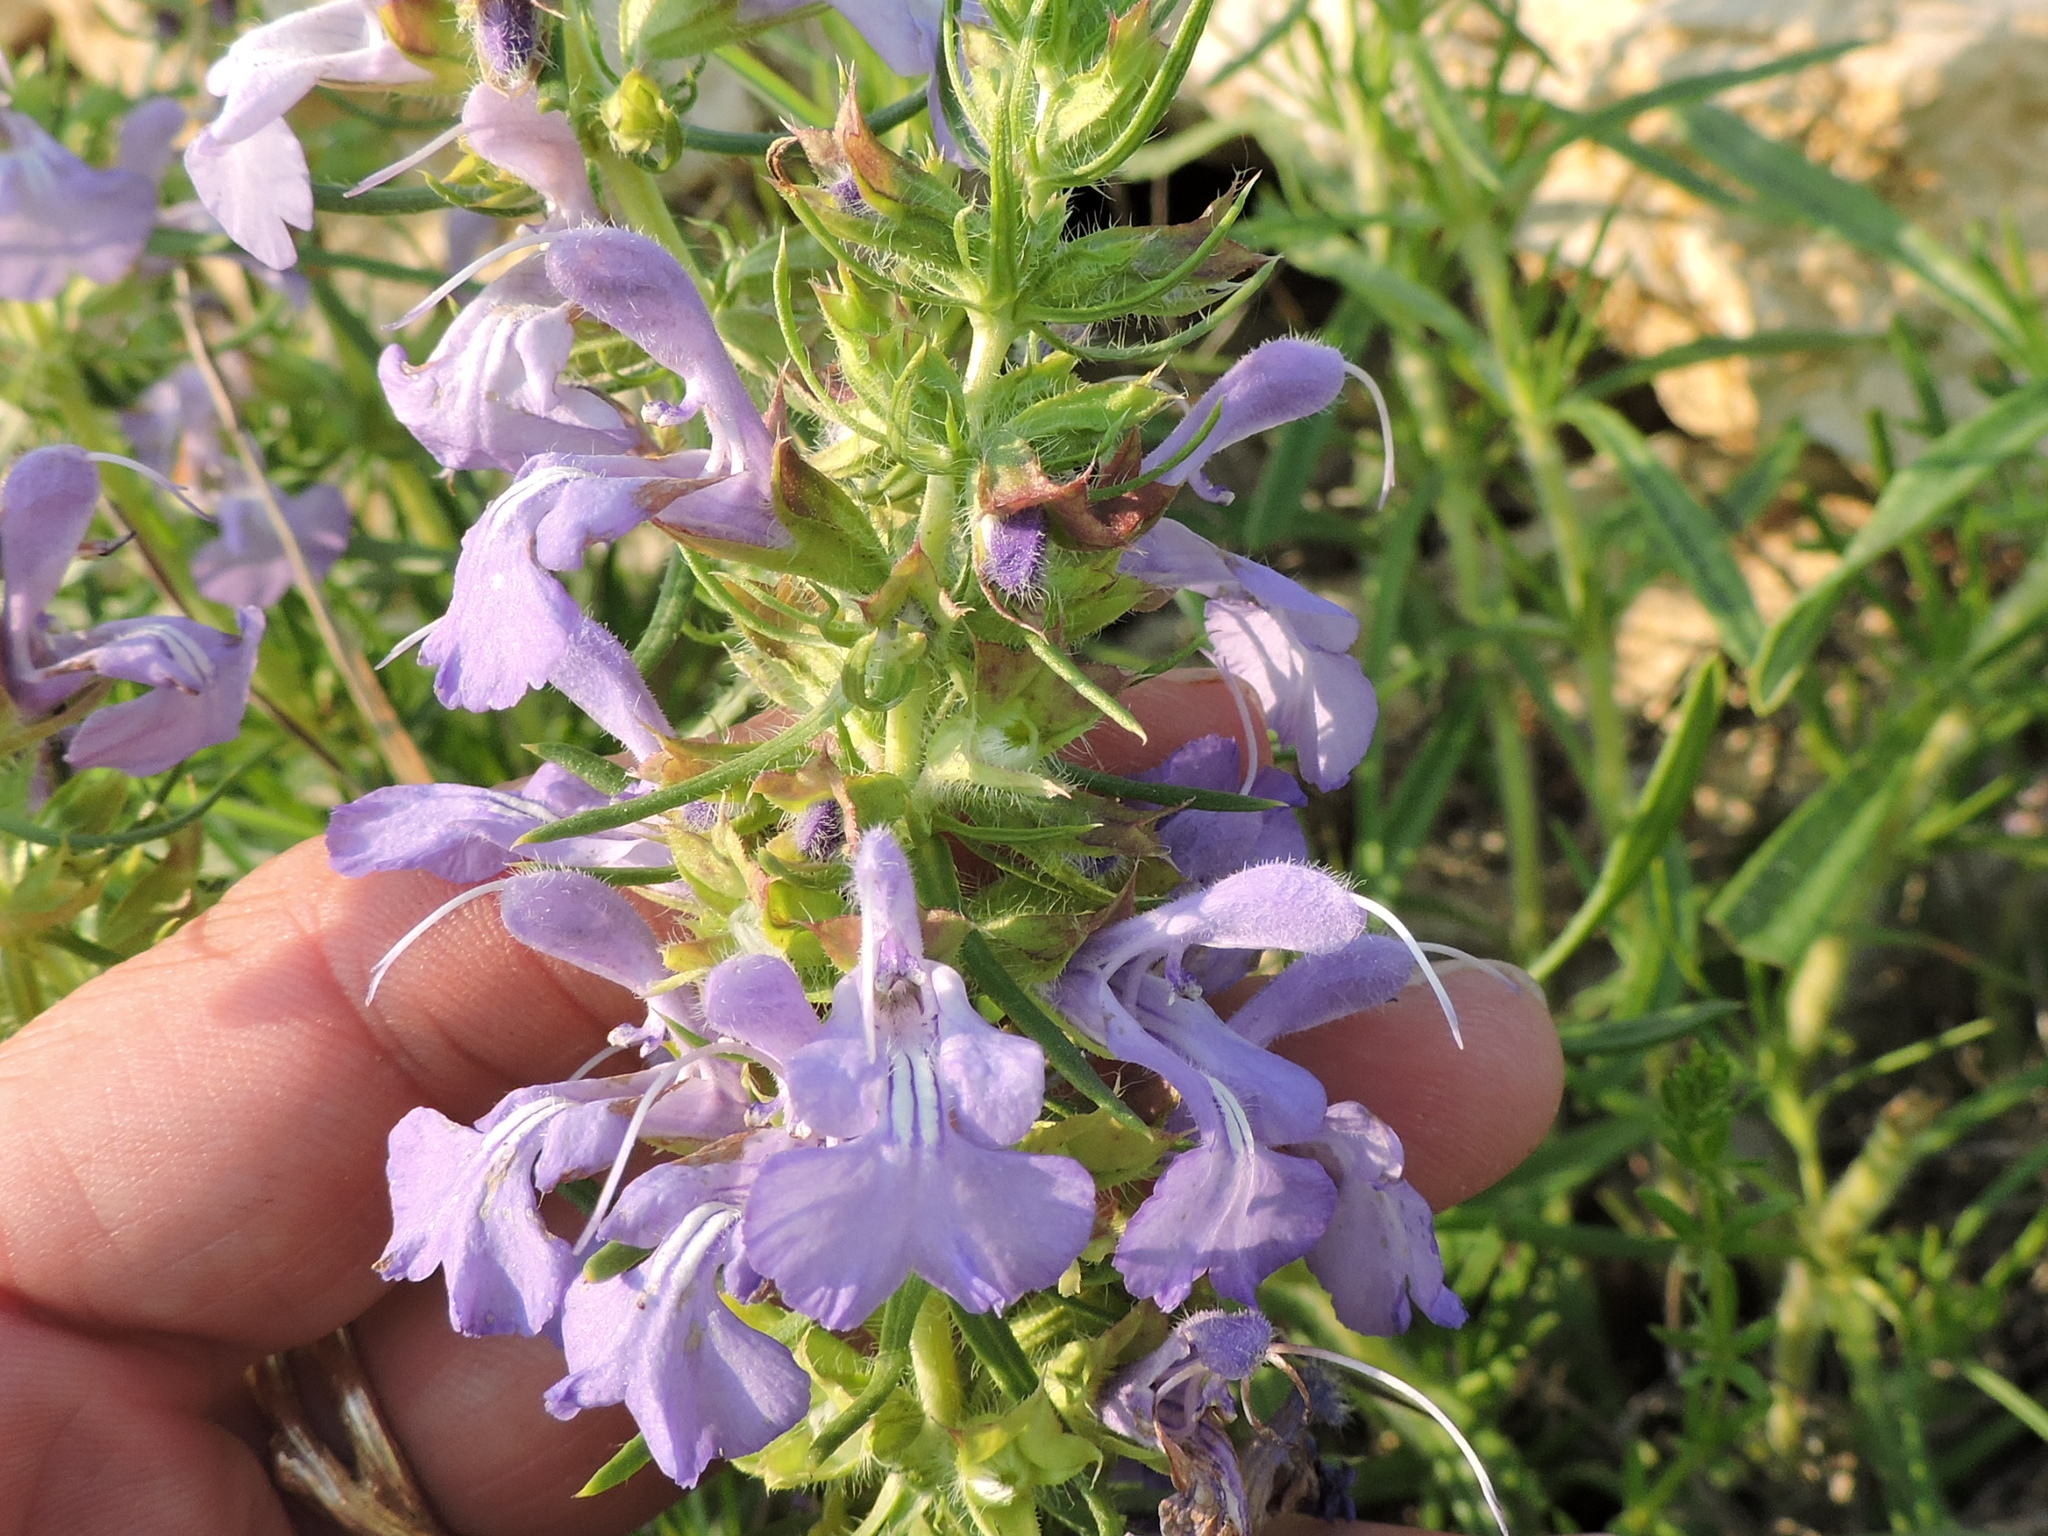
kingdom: Plantae
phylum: Tracheophyta
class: Magnoliopsida
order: Lamiales
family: Lamiaceae
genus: Salvia
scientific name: Salvia engelmannii
